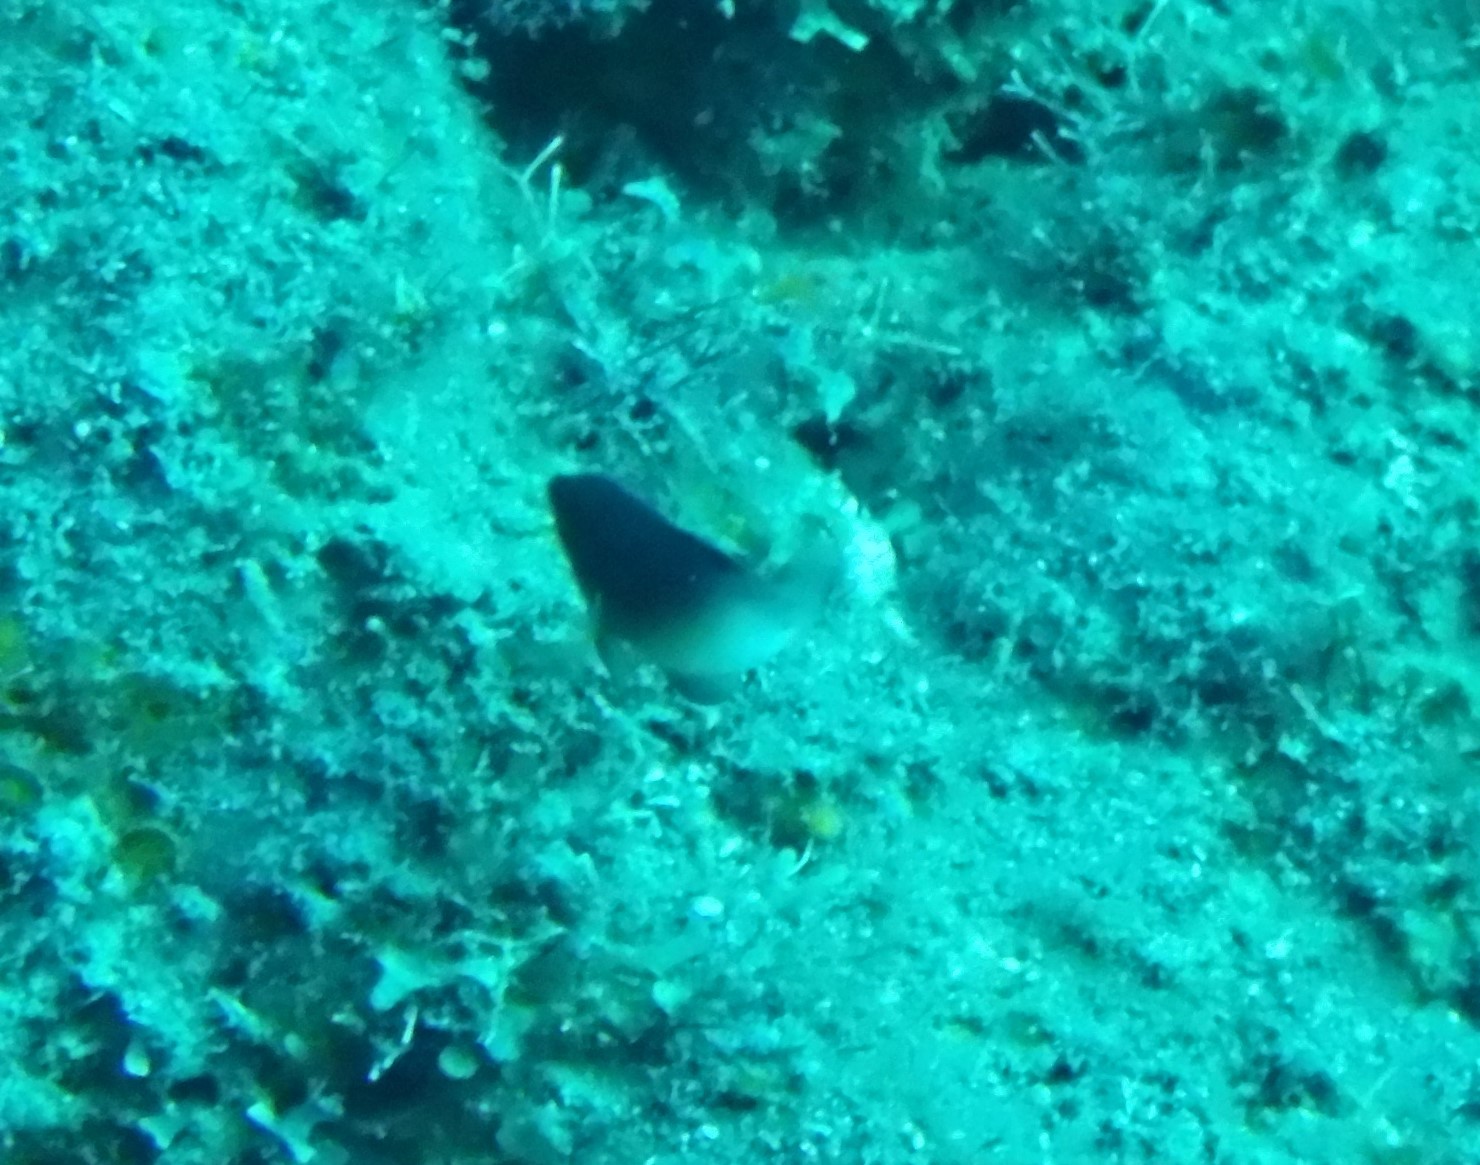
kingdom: Animalia
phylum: Chordata
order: Perciformes
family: Pomacentridae
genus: Stegastes
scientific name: Stegastes partitus
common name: Bicolor damselfish
